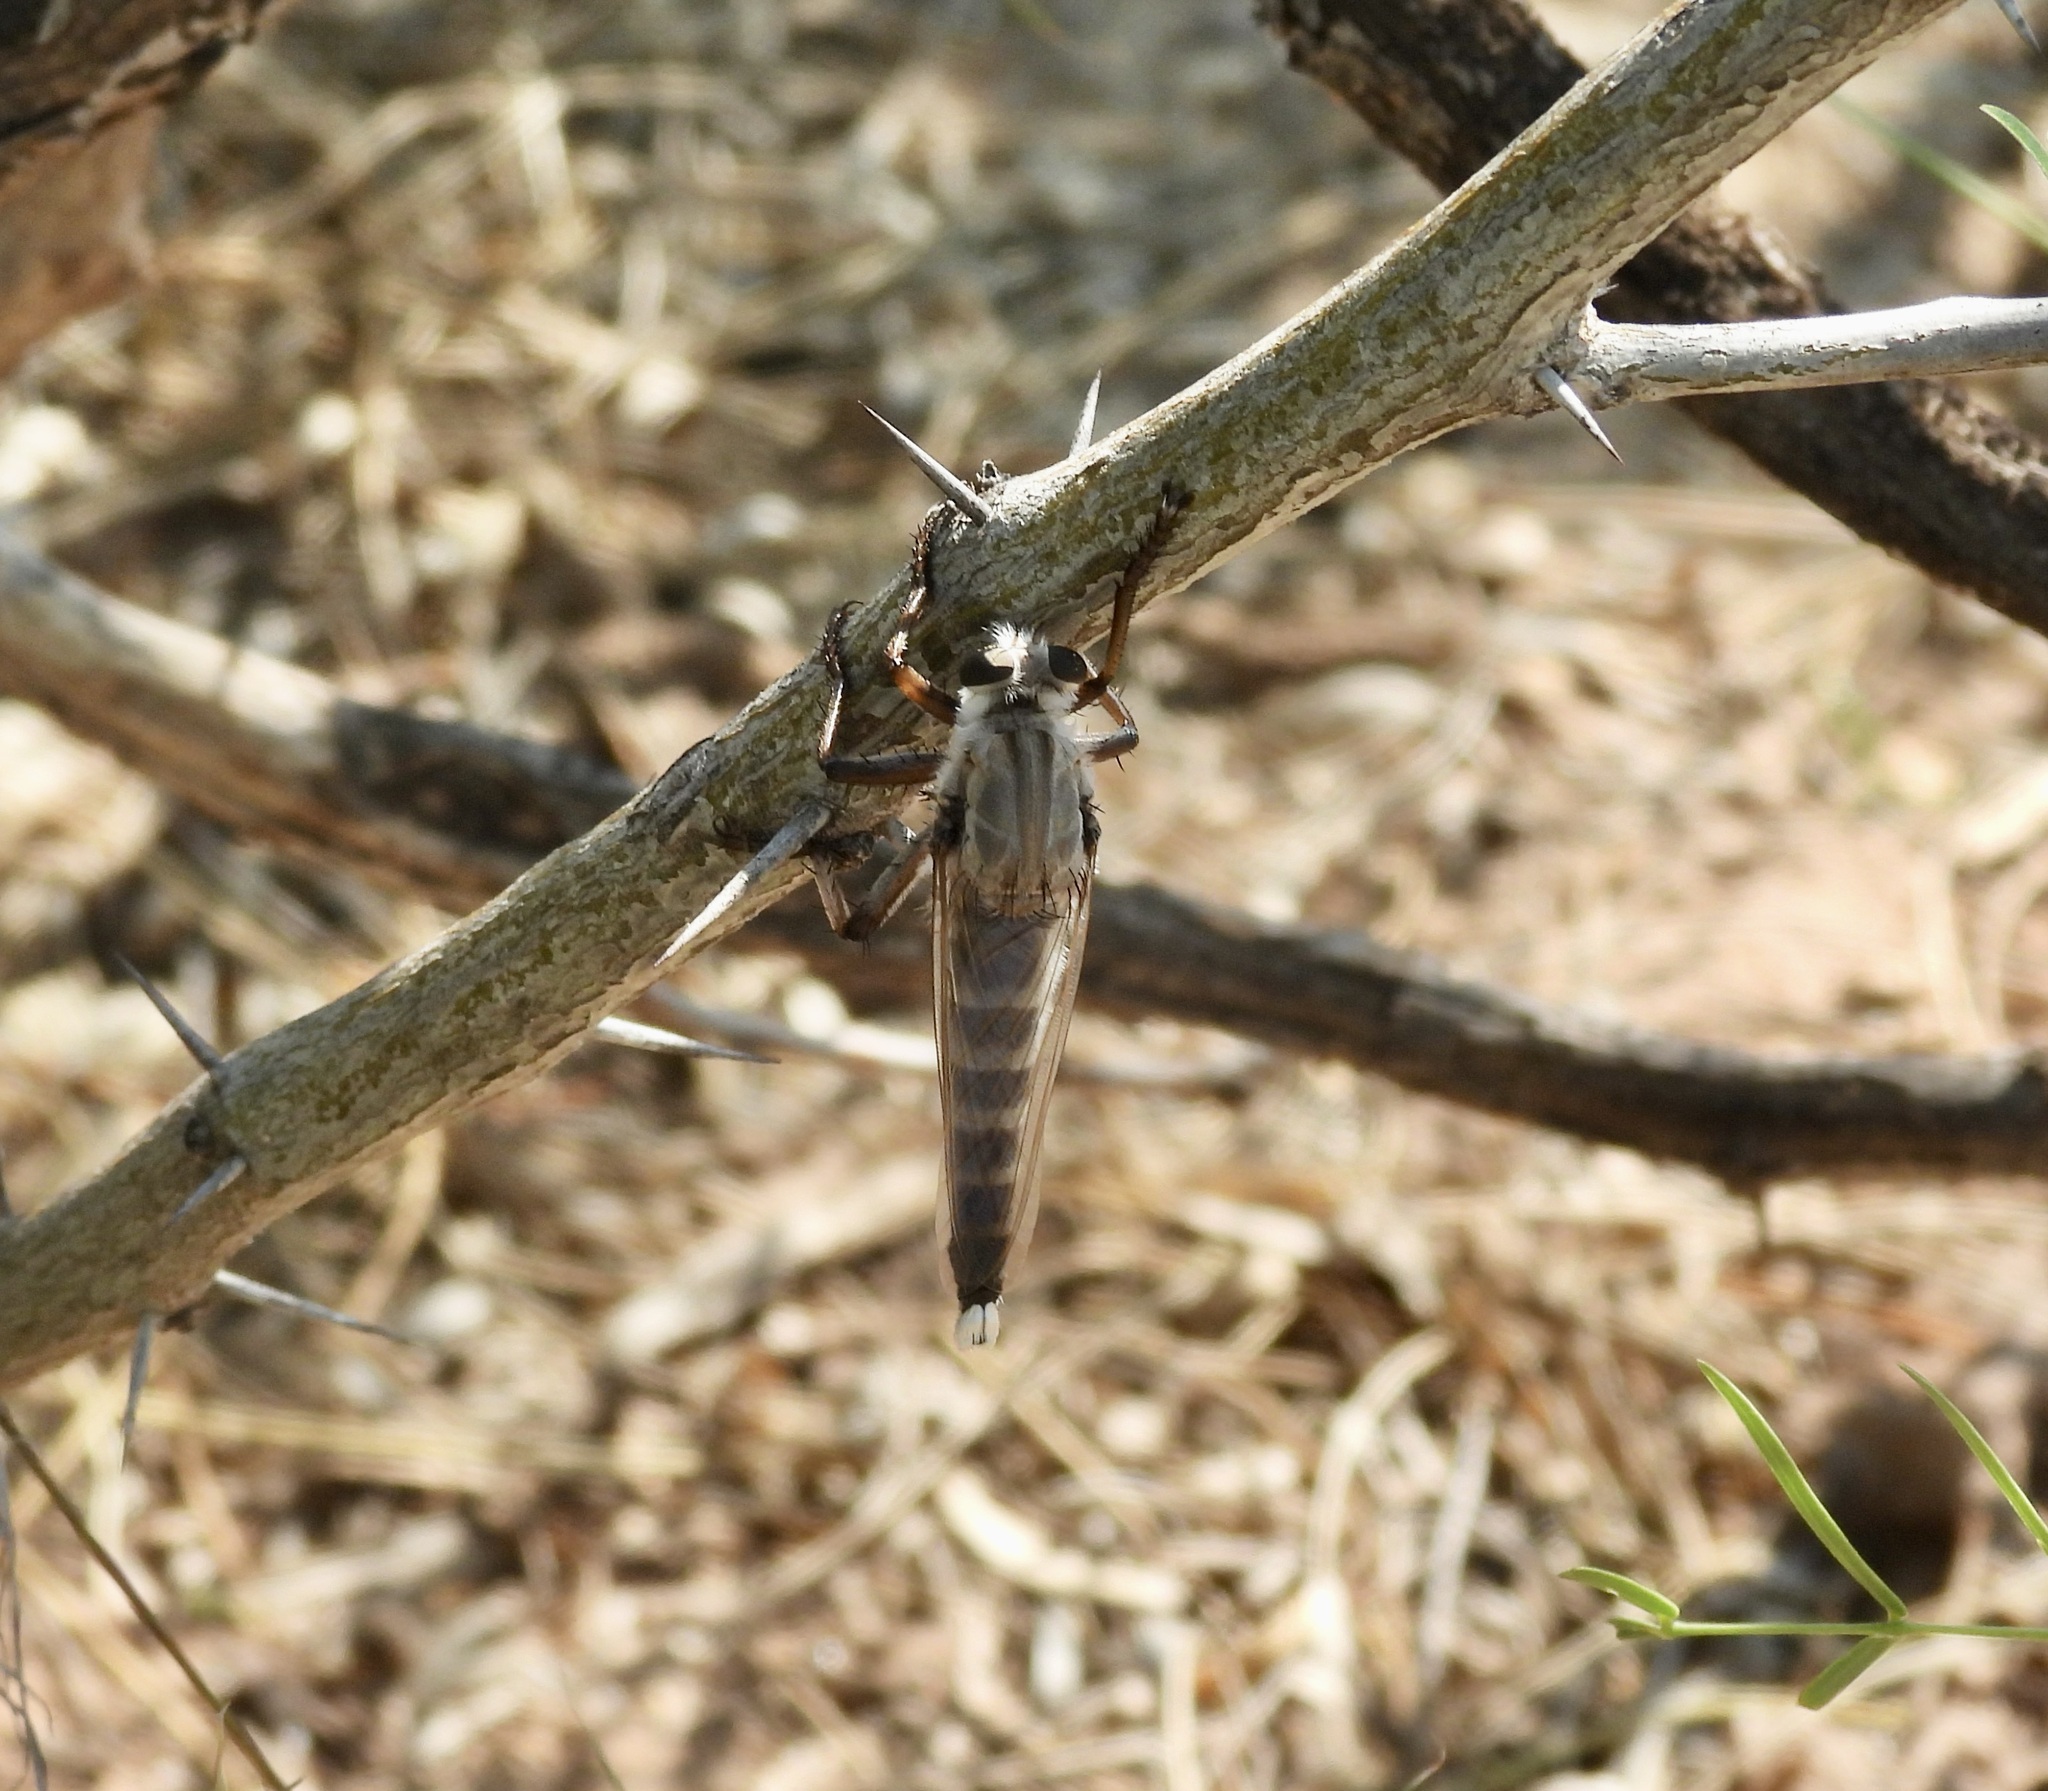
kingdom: Animalia
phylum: Arthropoda
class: Insecta
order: Diptera
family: Asilidae
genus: Promachus
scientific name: Promachus
